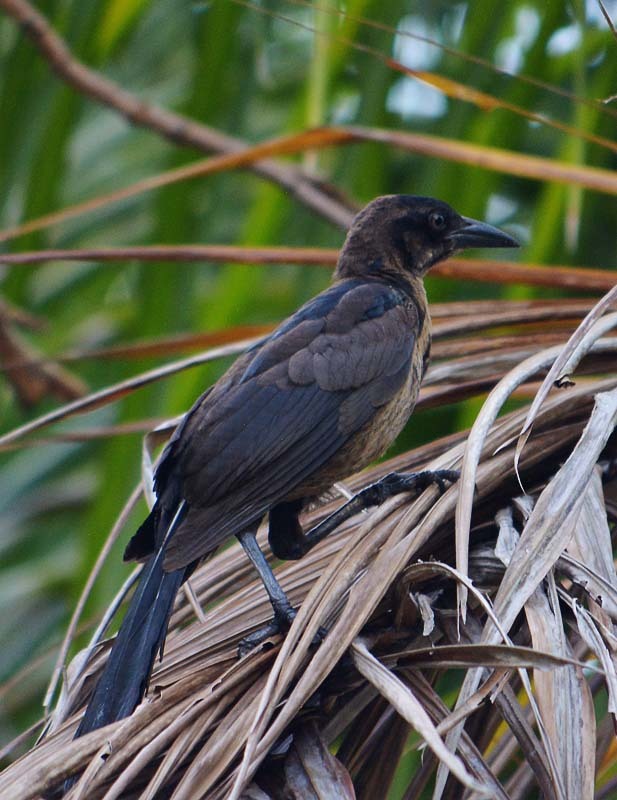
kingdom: Animalia
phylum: Chordata
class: Aves
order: Passeriformes
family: Icteridae
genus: Quiscalus
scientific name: Quiscalus mexicanus
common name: Great-tailed grackle
